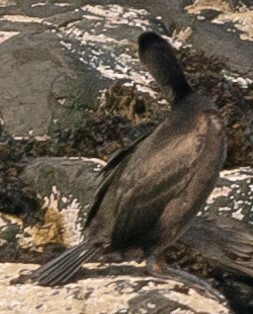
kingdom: Animalia
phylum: Chordata
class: Aves
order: Suliformes
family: Phalacrocoracidae
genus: Phalacrocorax
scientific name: Phalacrocorax aristotelis
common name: European shag
